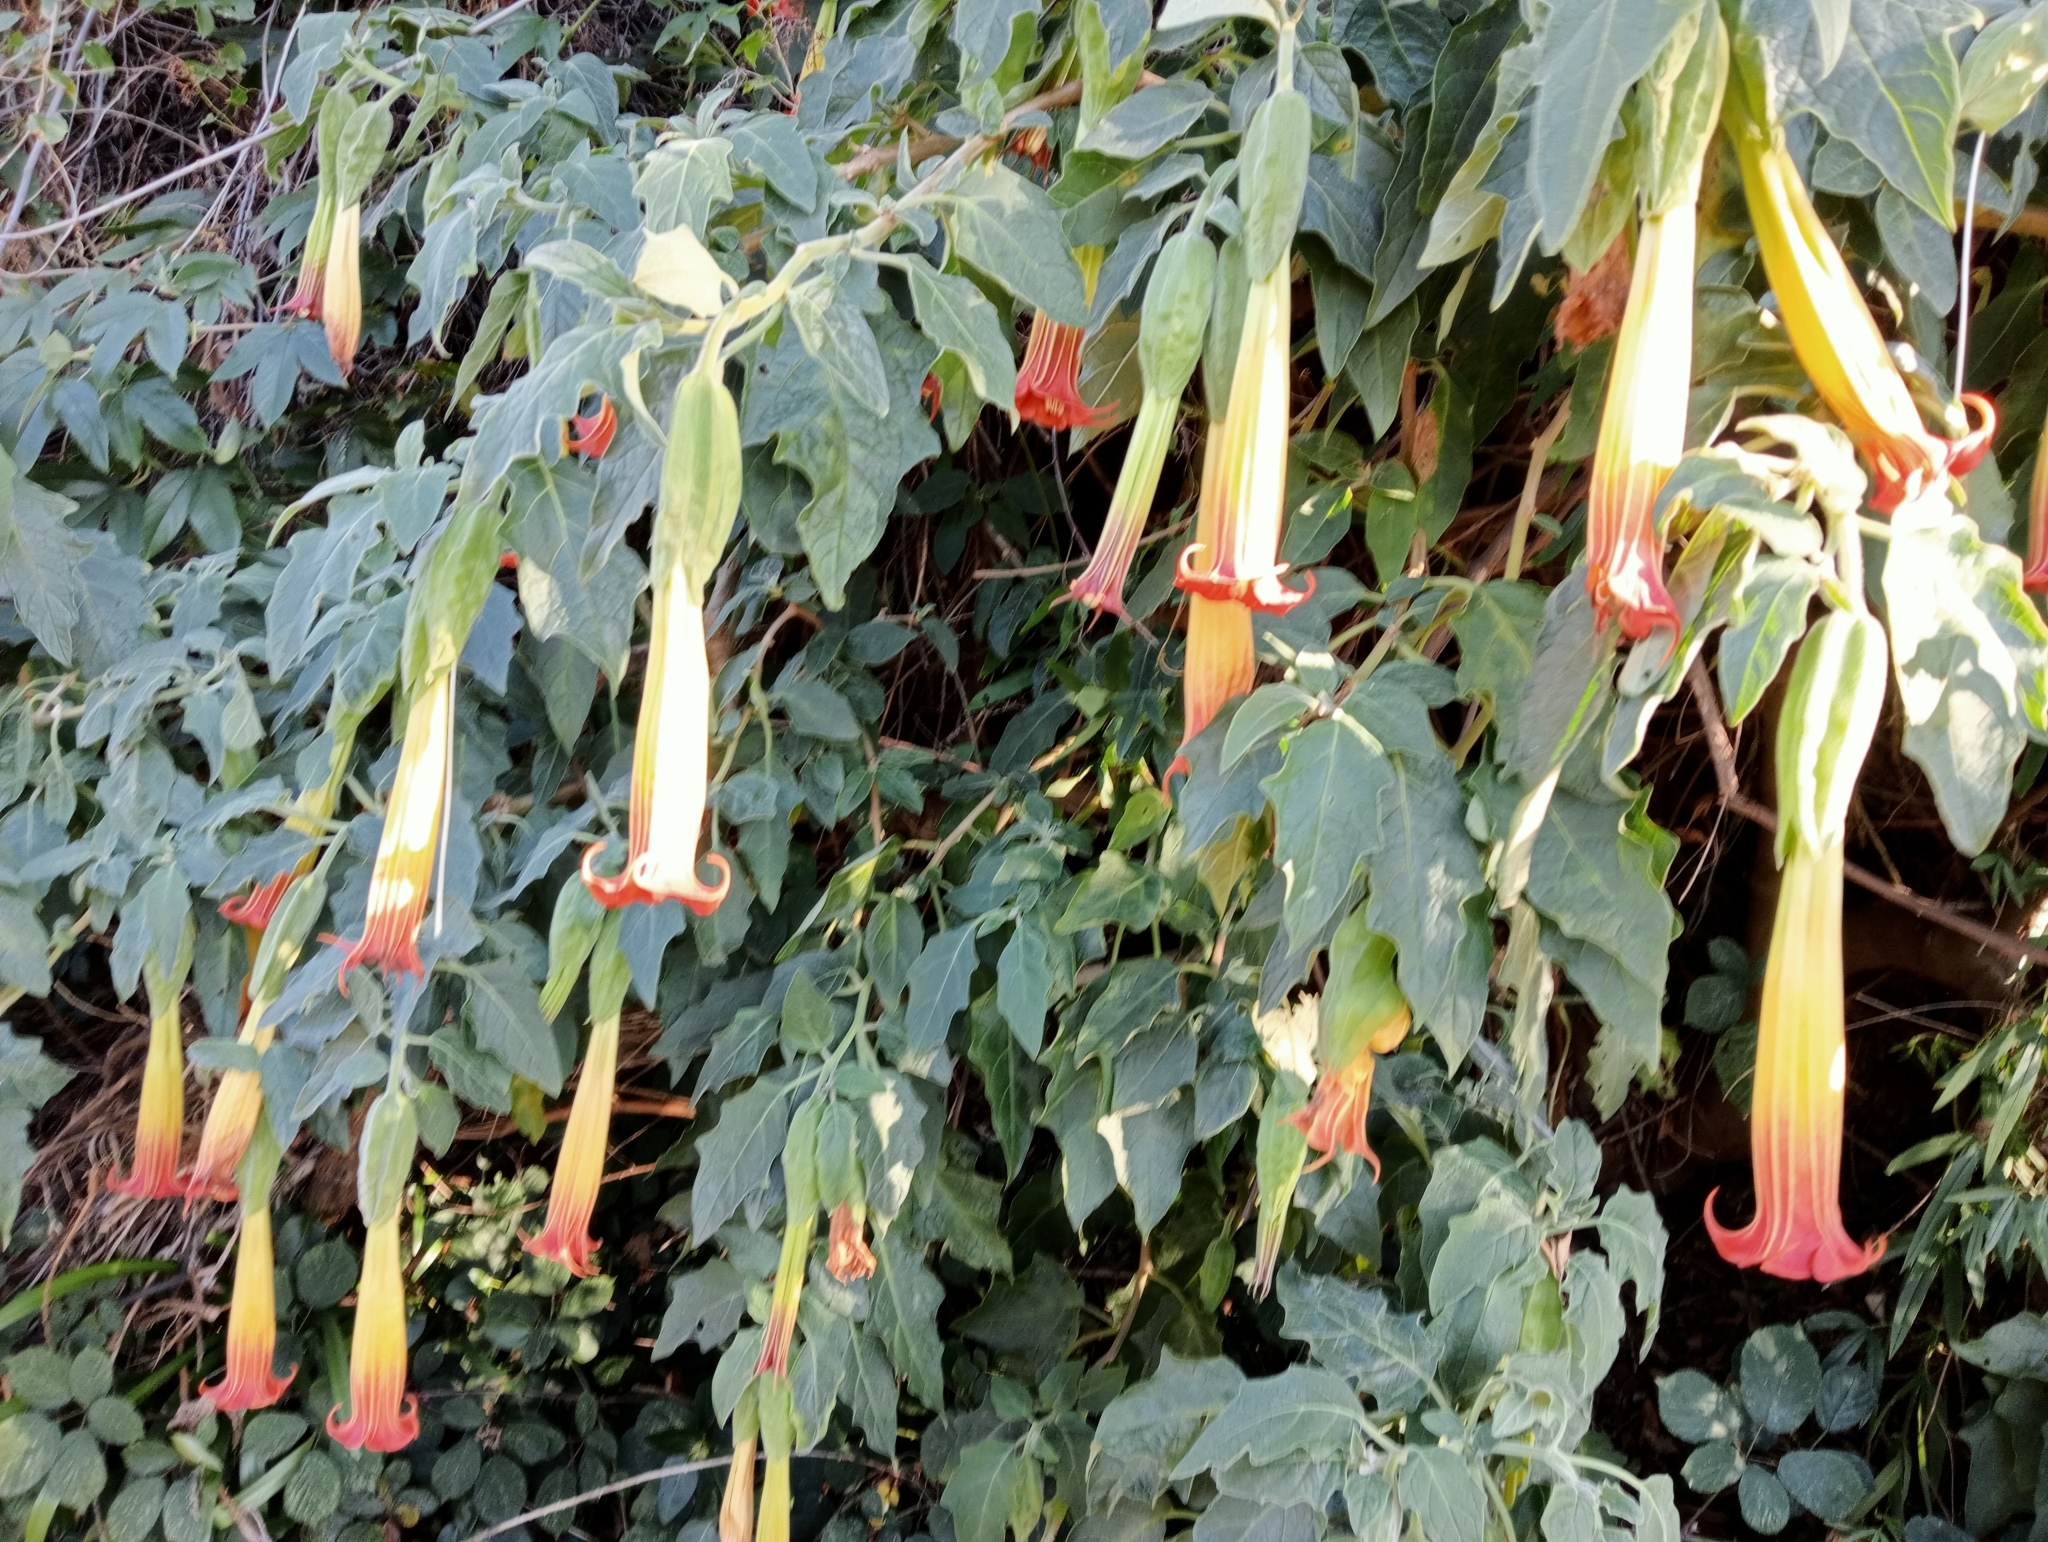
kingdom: Plantae
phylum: Tracheophyta
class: Magnoliopsida
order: Solanales
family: Solanaceae
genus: Brugmansia
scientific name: Brugmansia sanguinea
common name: Red floripontio
